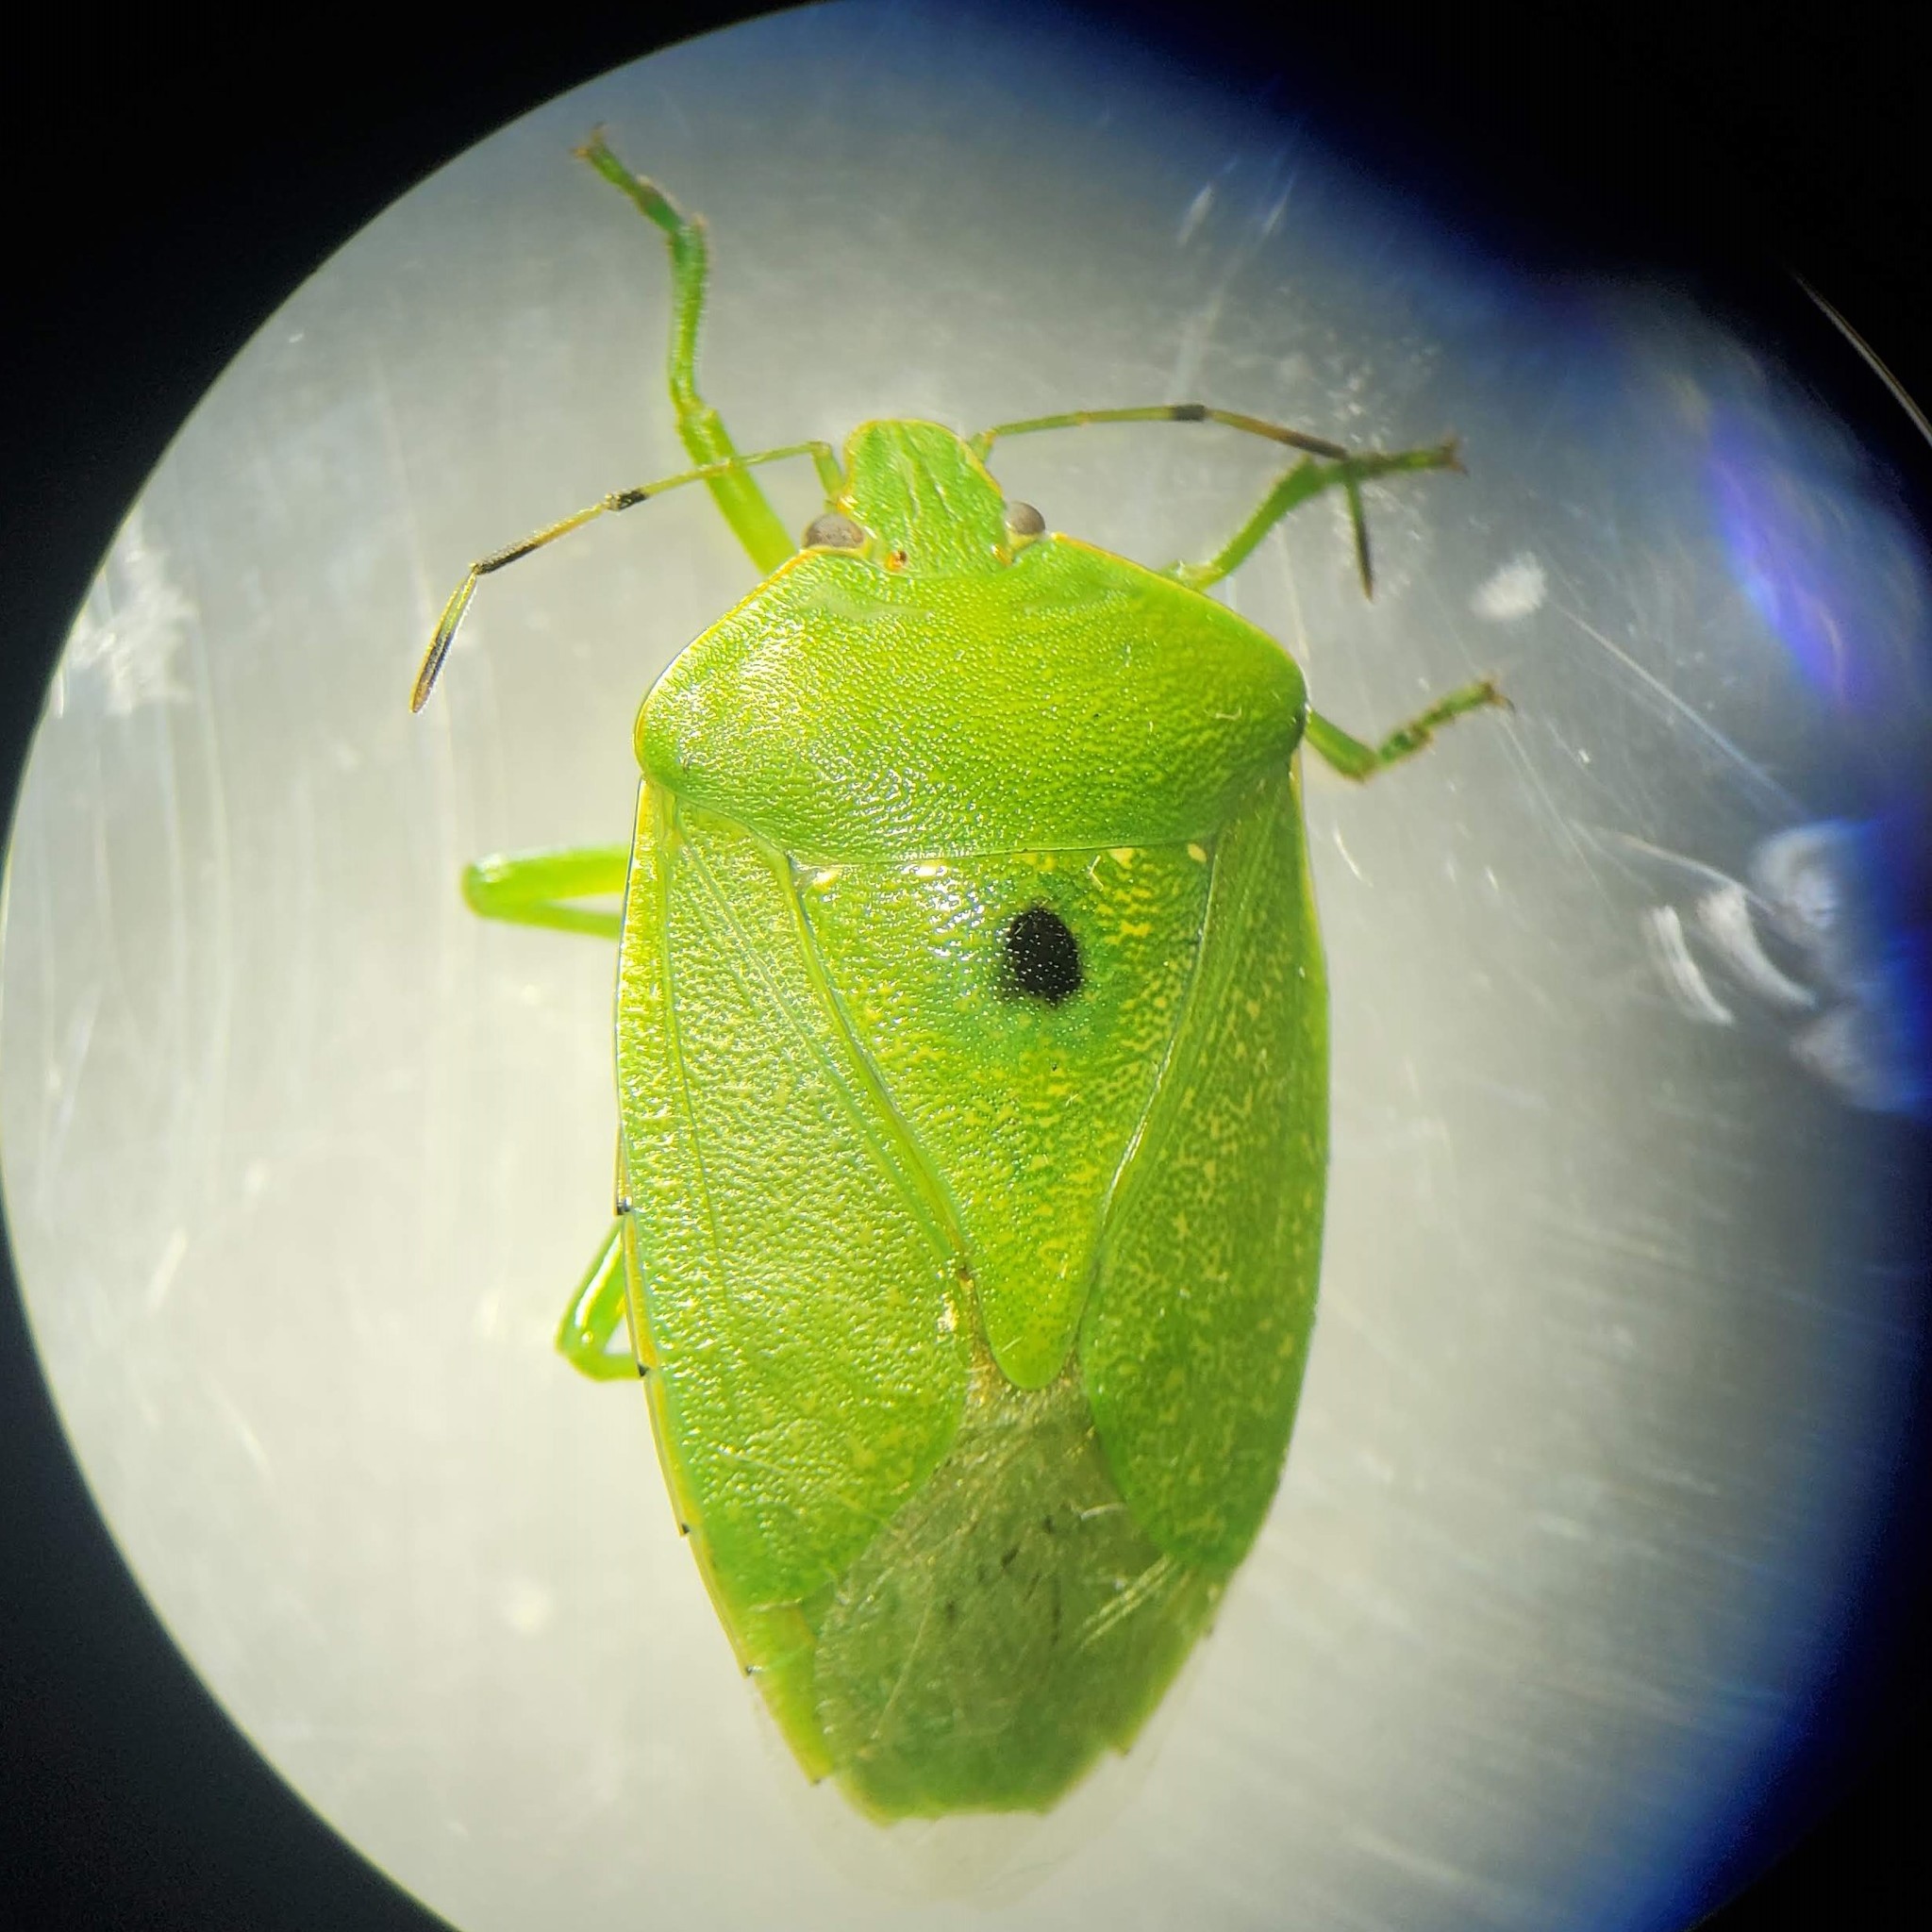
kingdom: Animalia
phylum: Arthropoda
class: Insecta
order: Hemiptera
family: Pentatomidae
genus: Chinavia
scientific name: Chinavia hilaris
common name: Green stink bug
